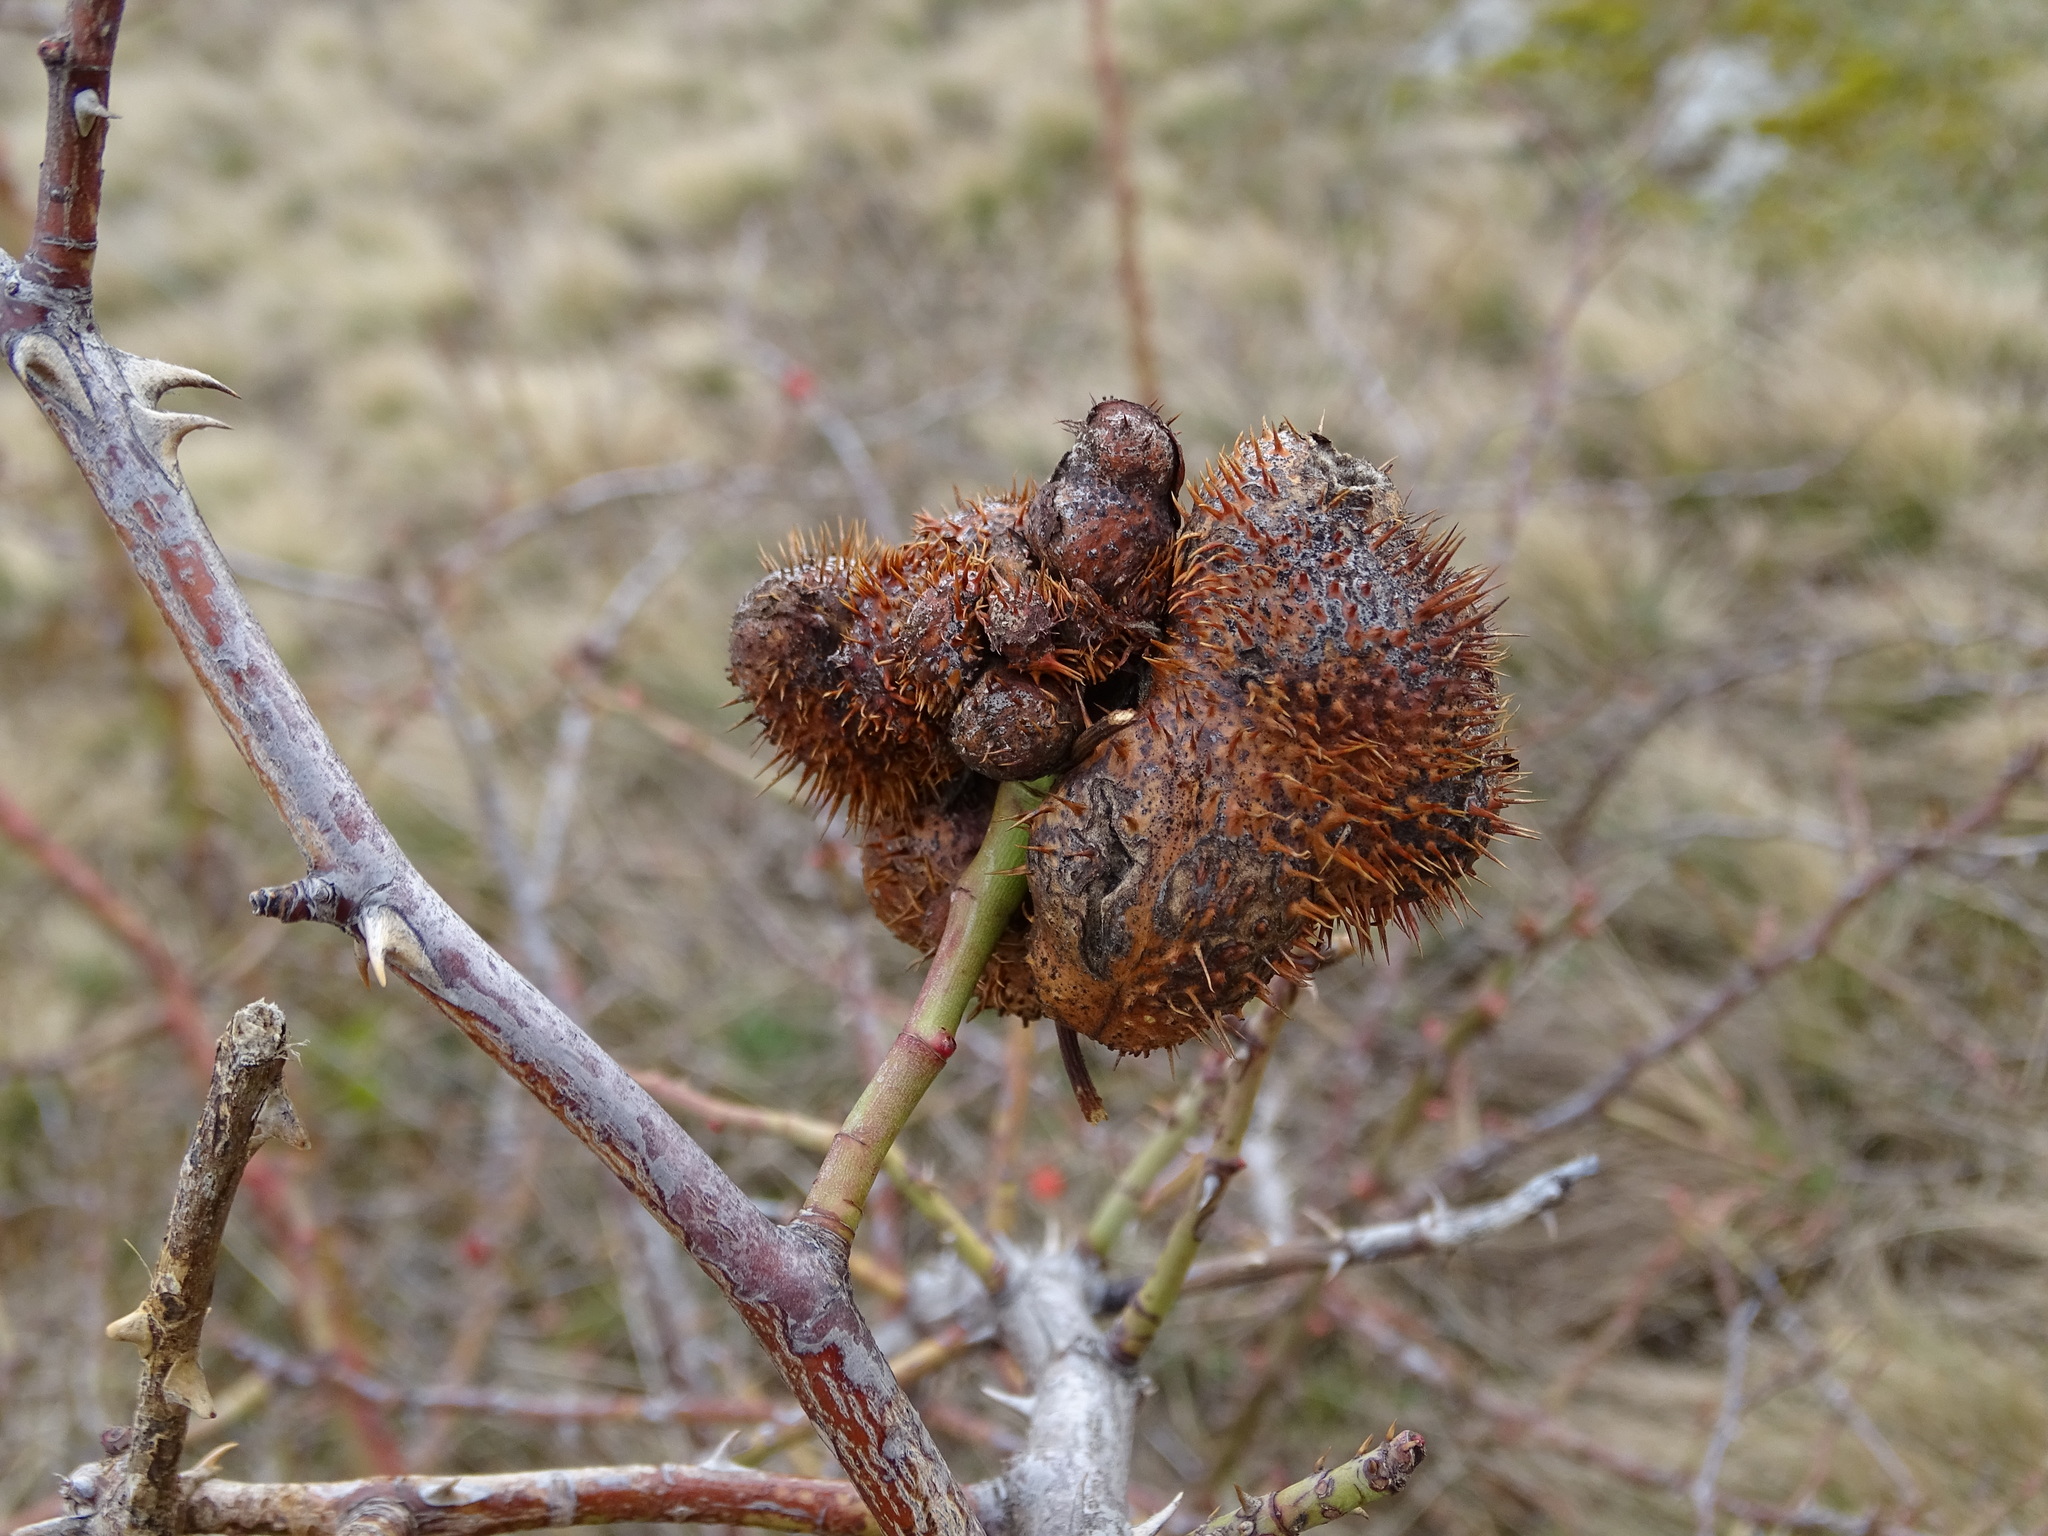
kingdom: Animalia
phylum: Arthropoda
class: Insecta
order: Hymenoptera
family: Cynipidae
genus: Diplolepis
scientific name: Diplolepis mayri
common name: Gall wasp
